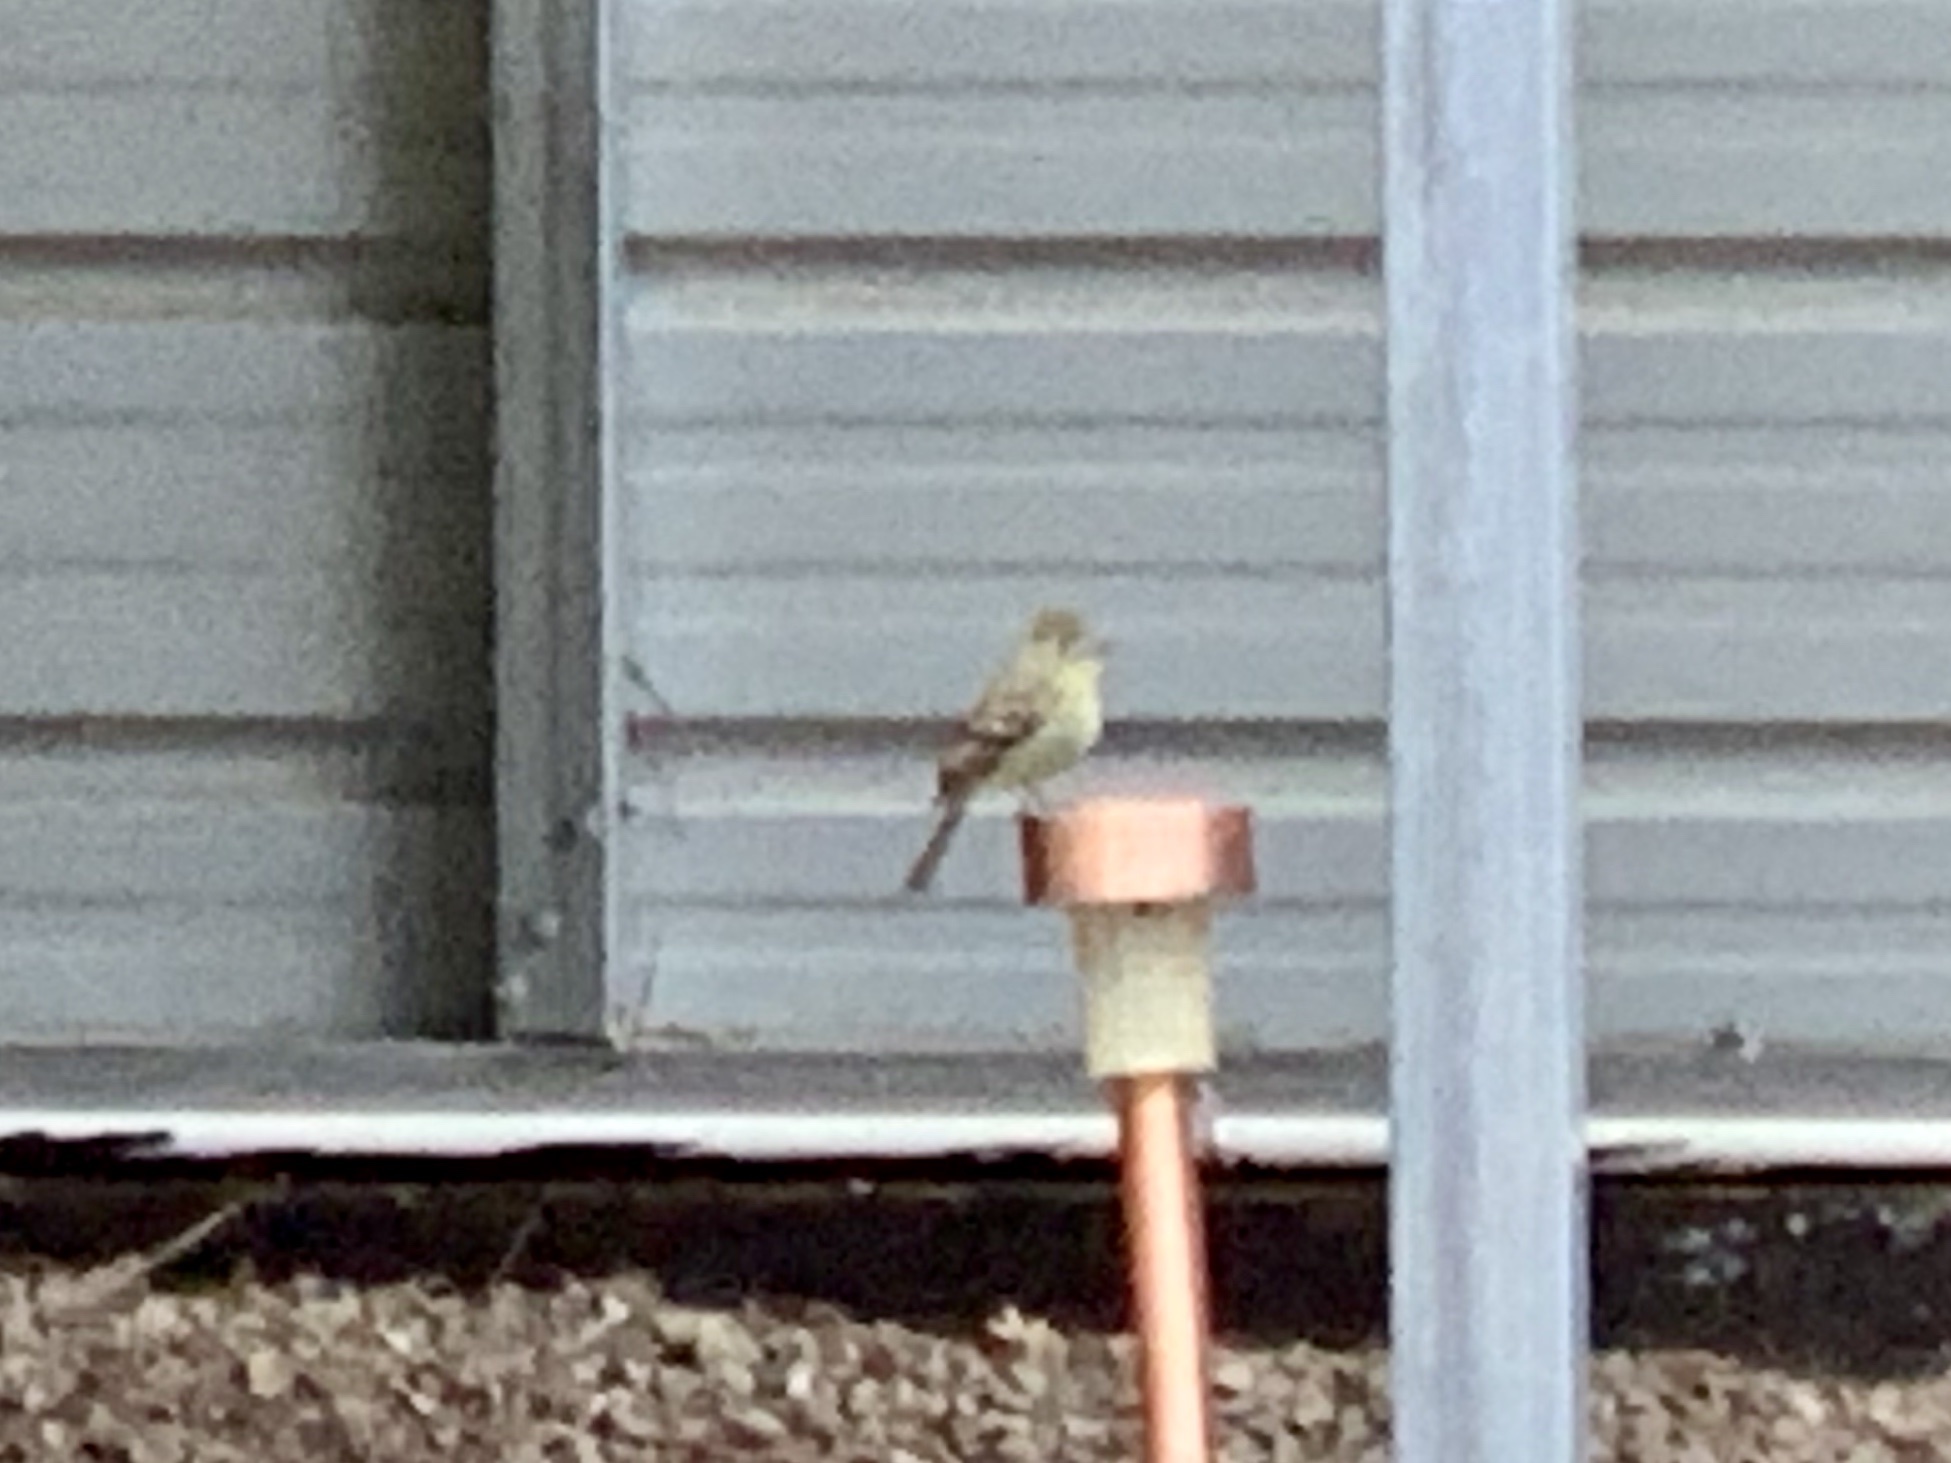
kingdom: Animalia
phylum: Chordata
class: Aves
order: Passeriformes
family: Tyrannidae
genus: Empidonax
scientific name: Empidonax difficilis
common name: Pacific-slope flycatcher
